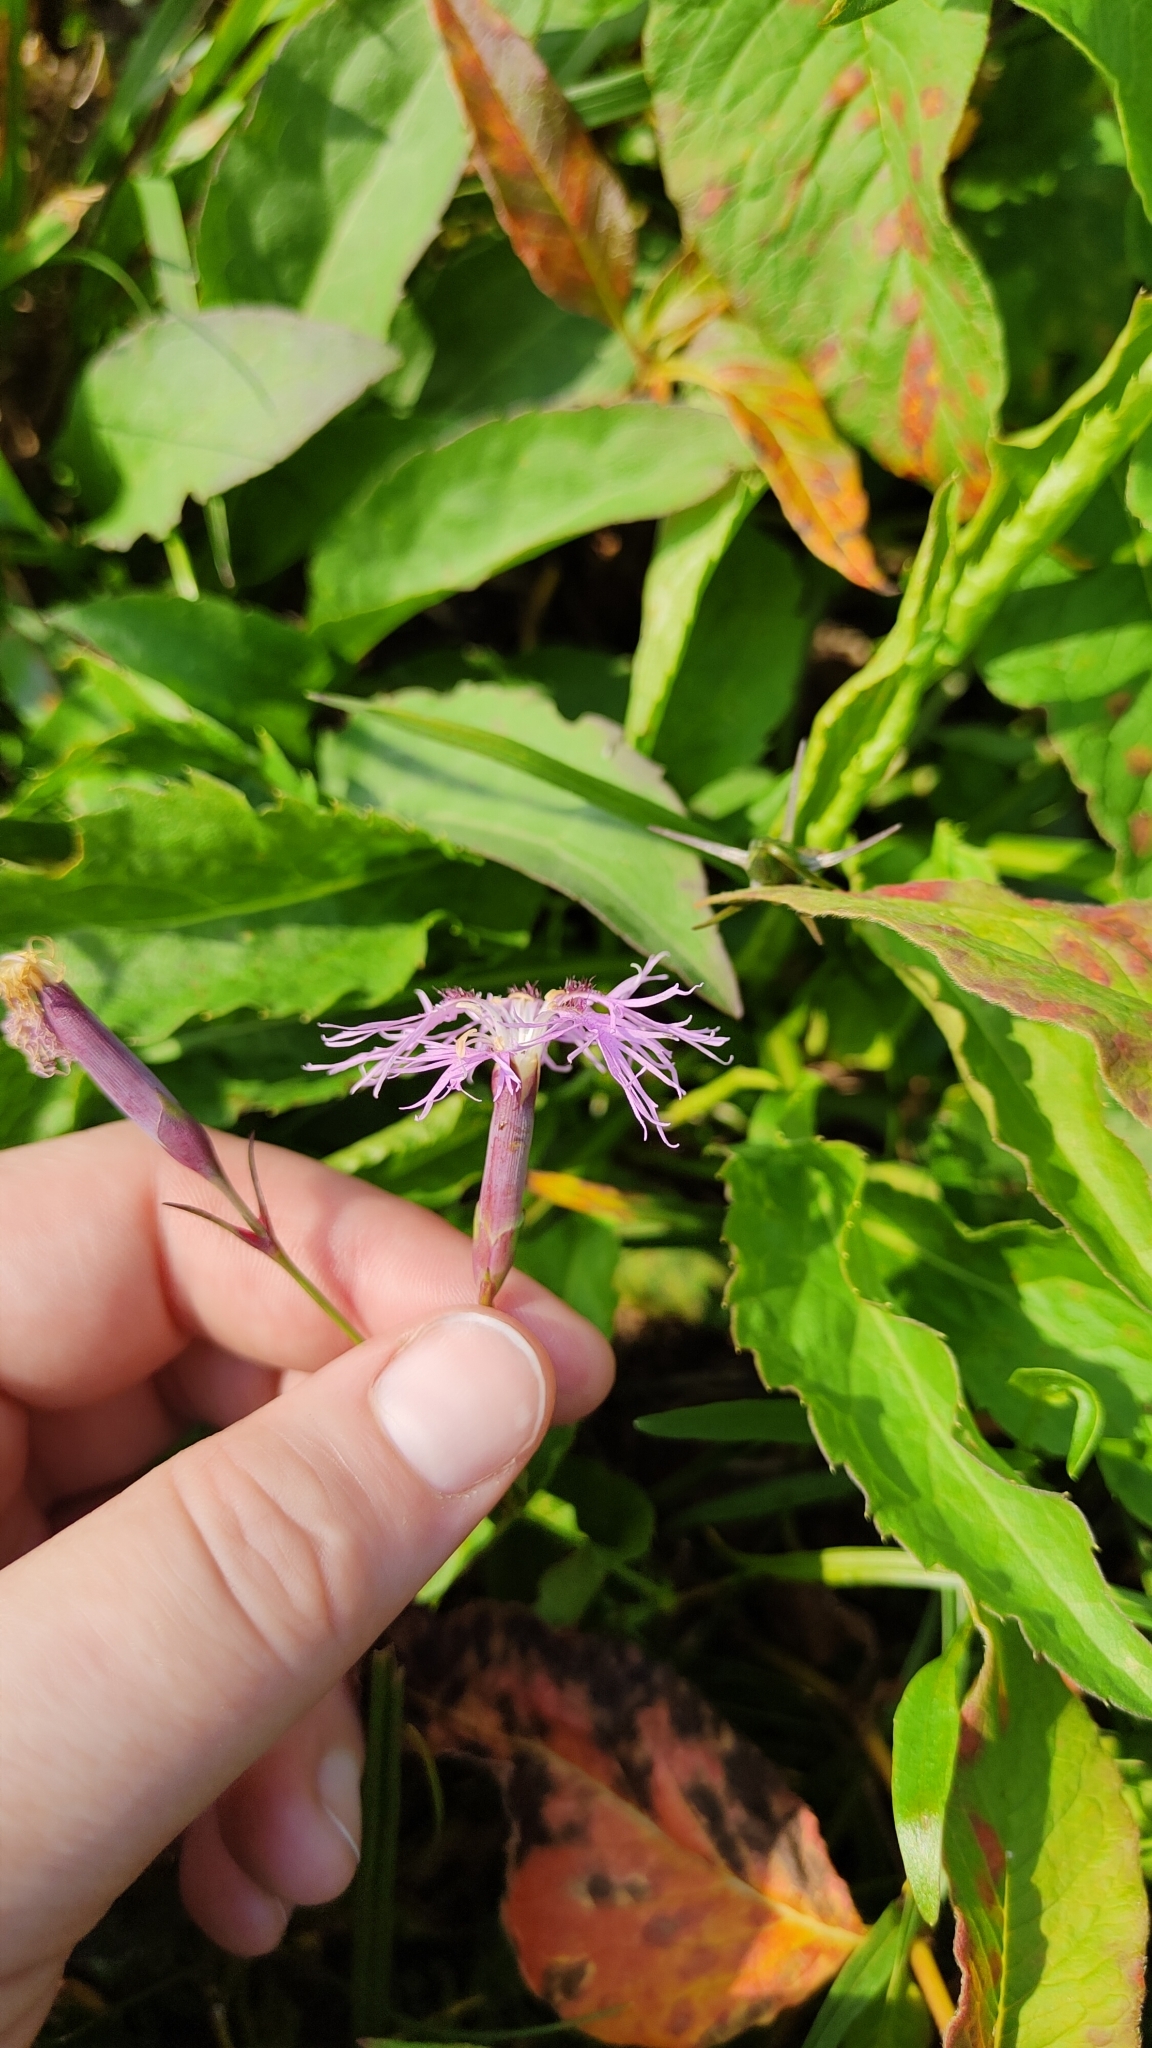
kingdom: Plantae
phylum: Tracheophyta
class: Magnoliopsida
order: Caryophyllales
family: Caryophyllaceae
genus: Dianthus
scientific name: Dianthus superbus
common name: Fringed pink
